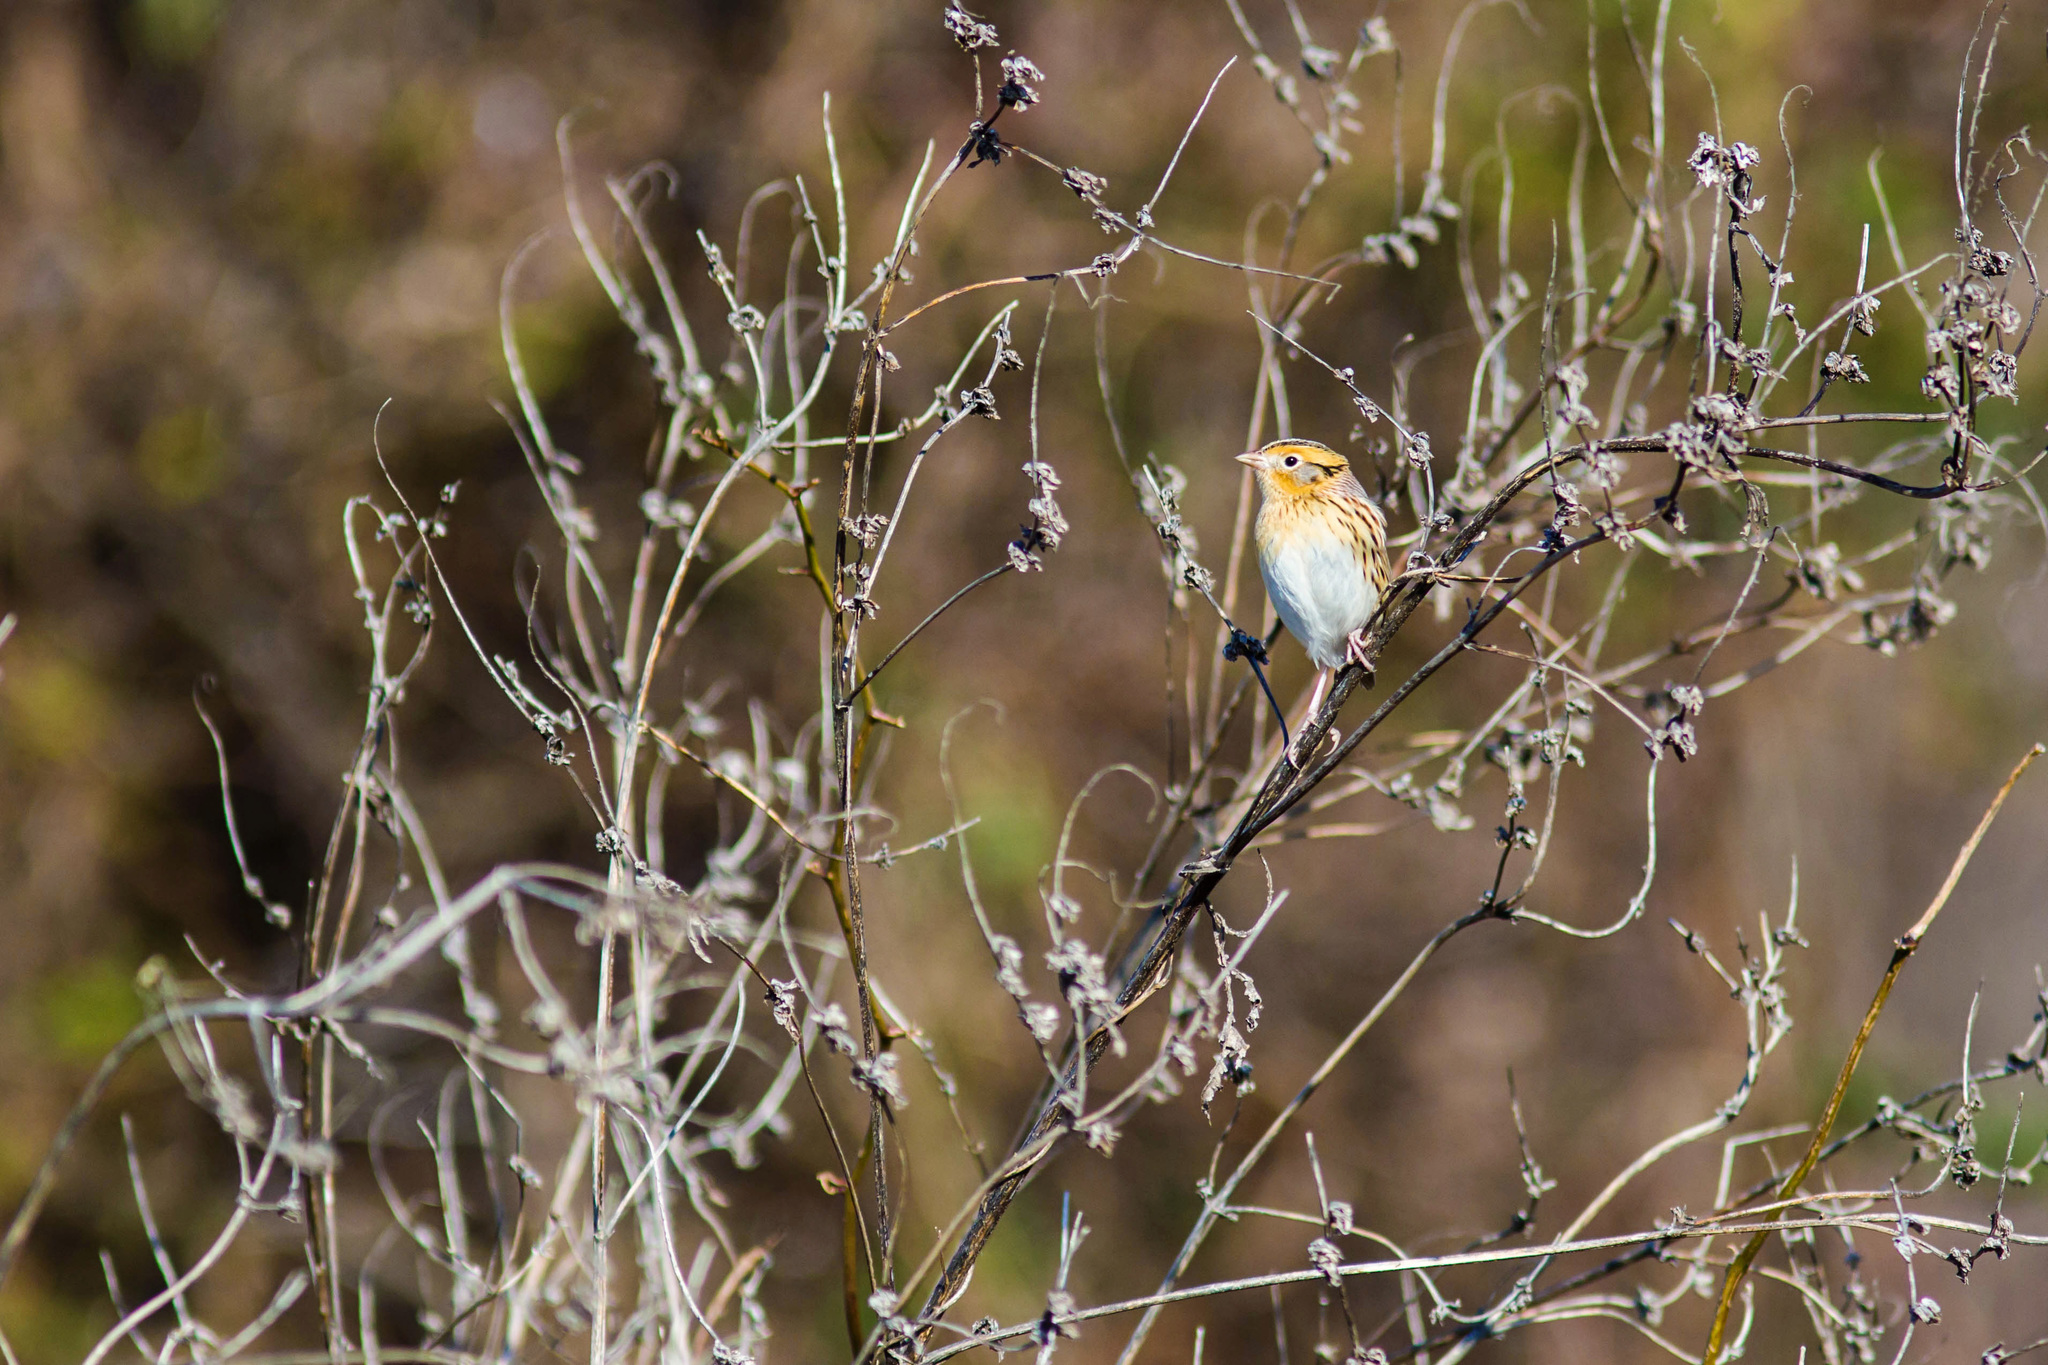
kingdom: Animalia
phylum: Chordata
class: Aves
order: Passeriformes
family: Passerellidae
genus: Ammospiza
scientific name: Ammospiza leconteii
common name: Le conte's sparrow
